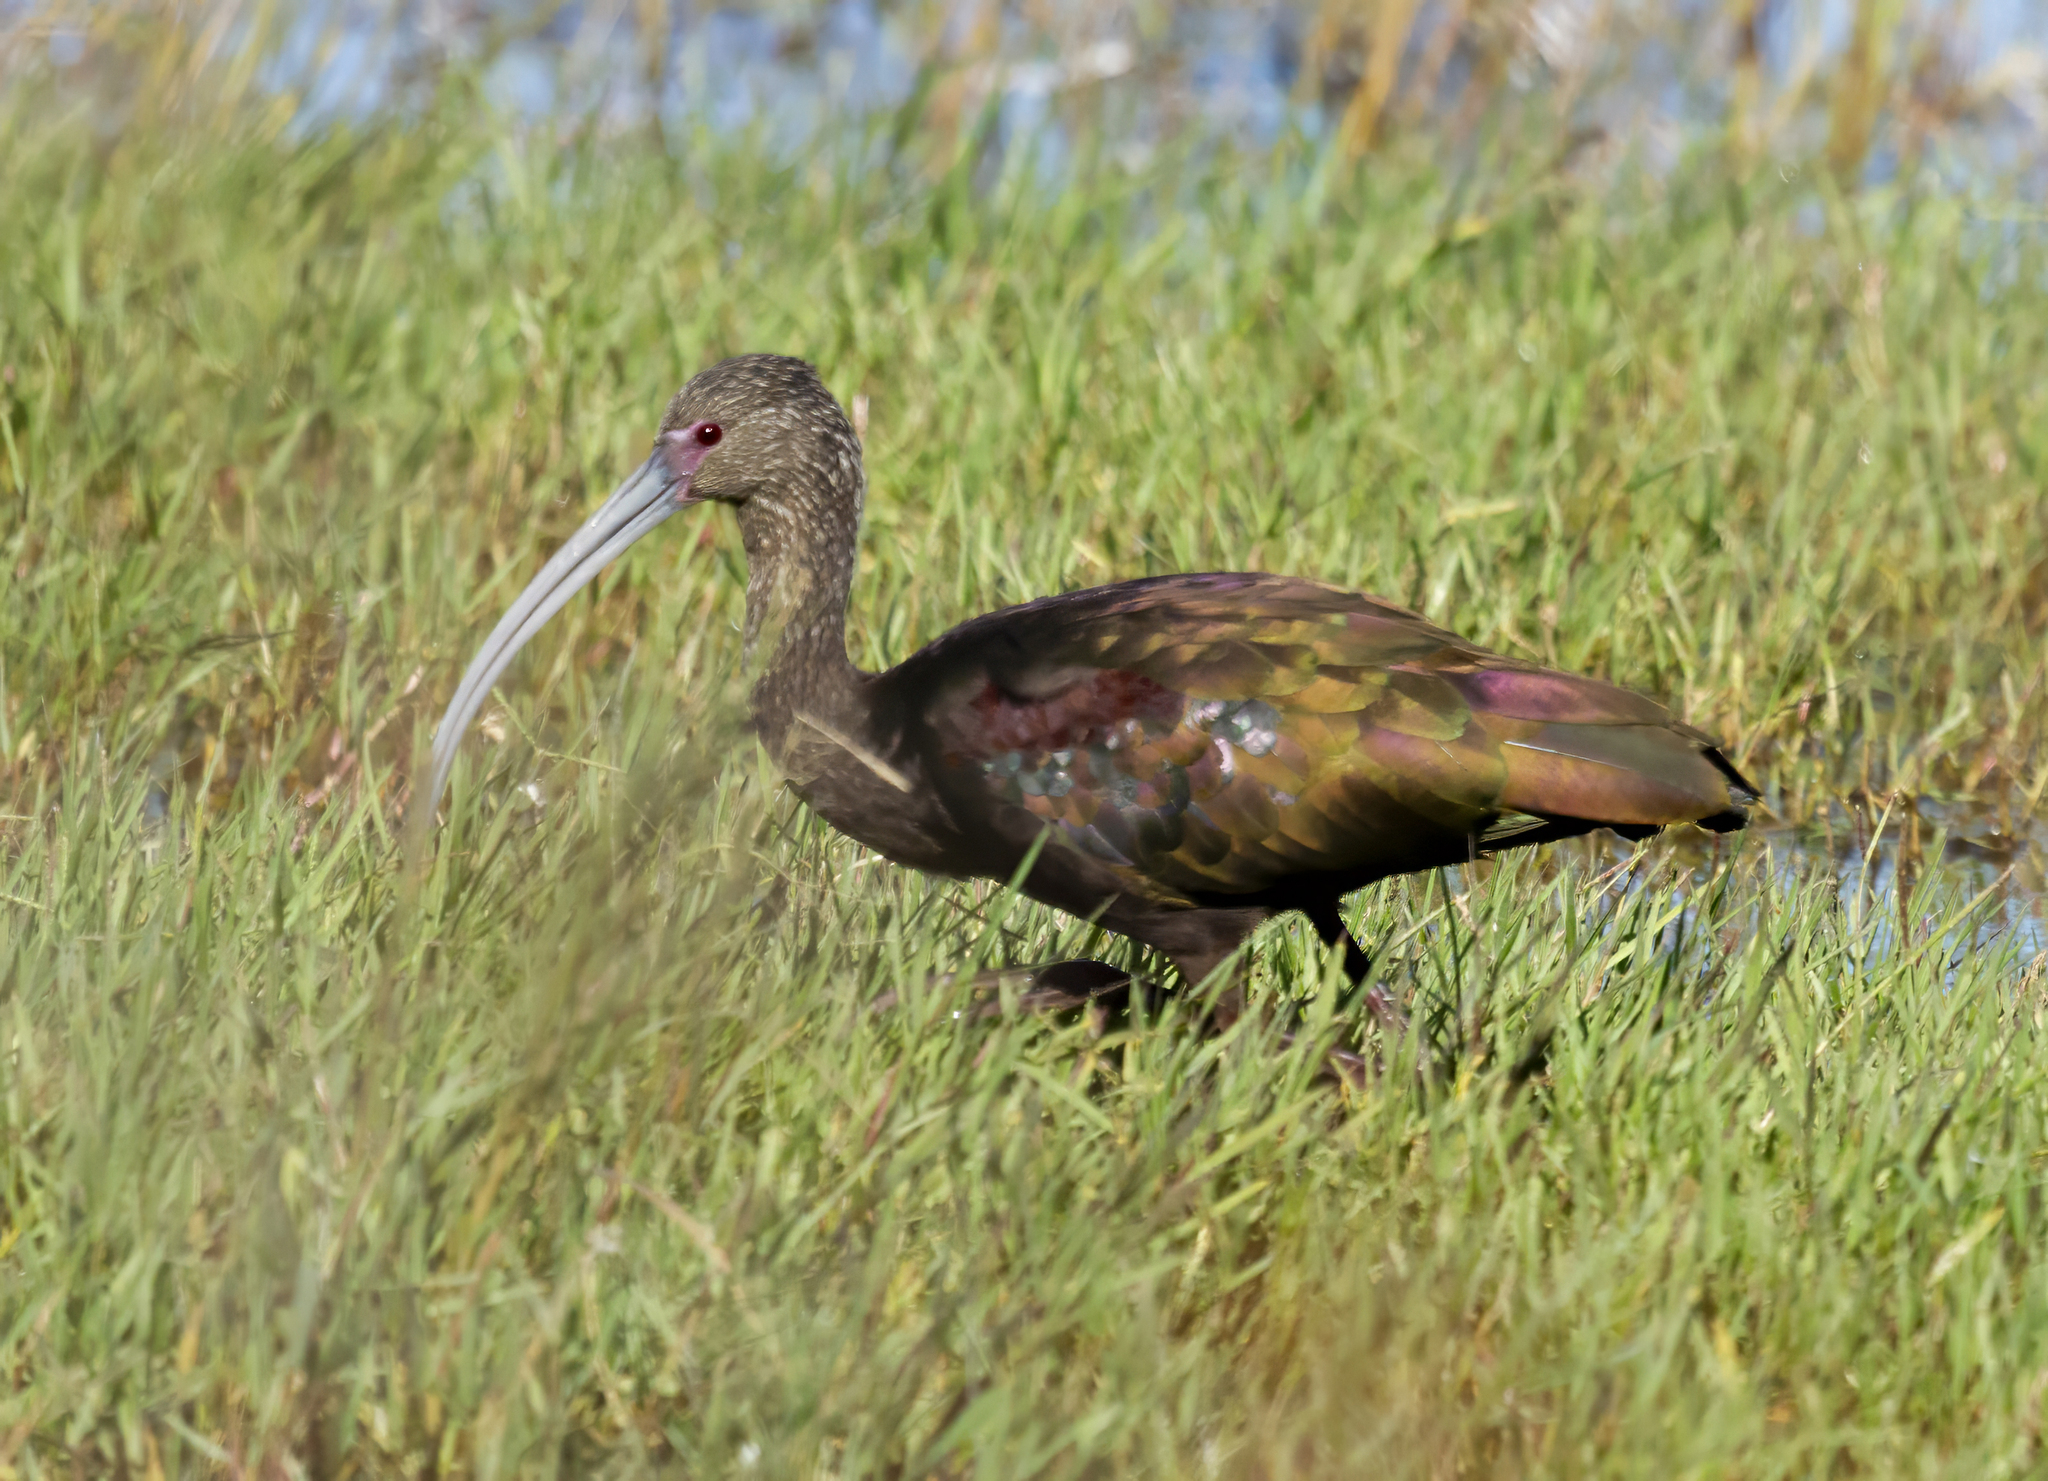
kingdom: Animalia
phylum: Chordata
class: Aves
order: Pelecaniformes
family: Threskiornithidae
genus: Plegadis
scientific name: Plegadis chihi
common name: White-faced ibis
